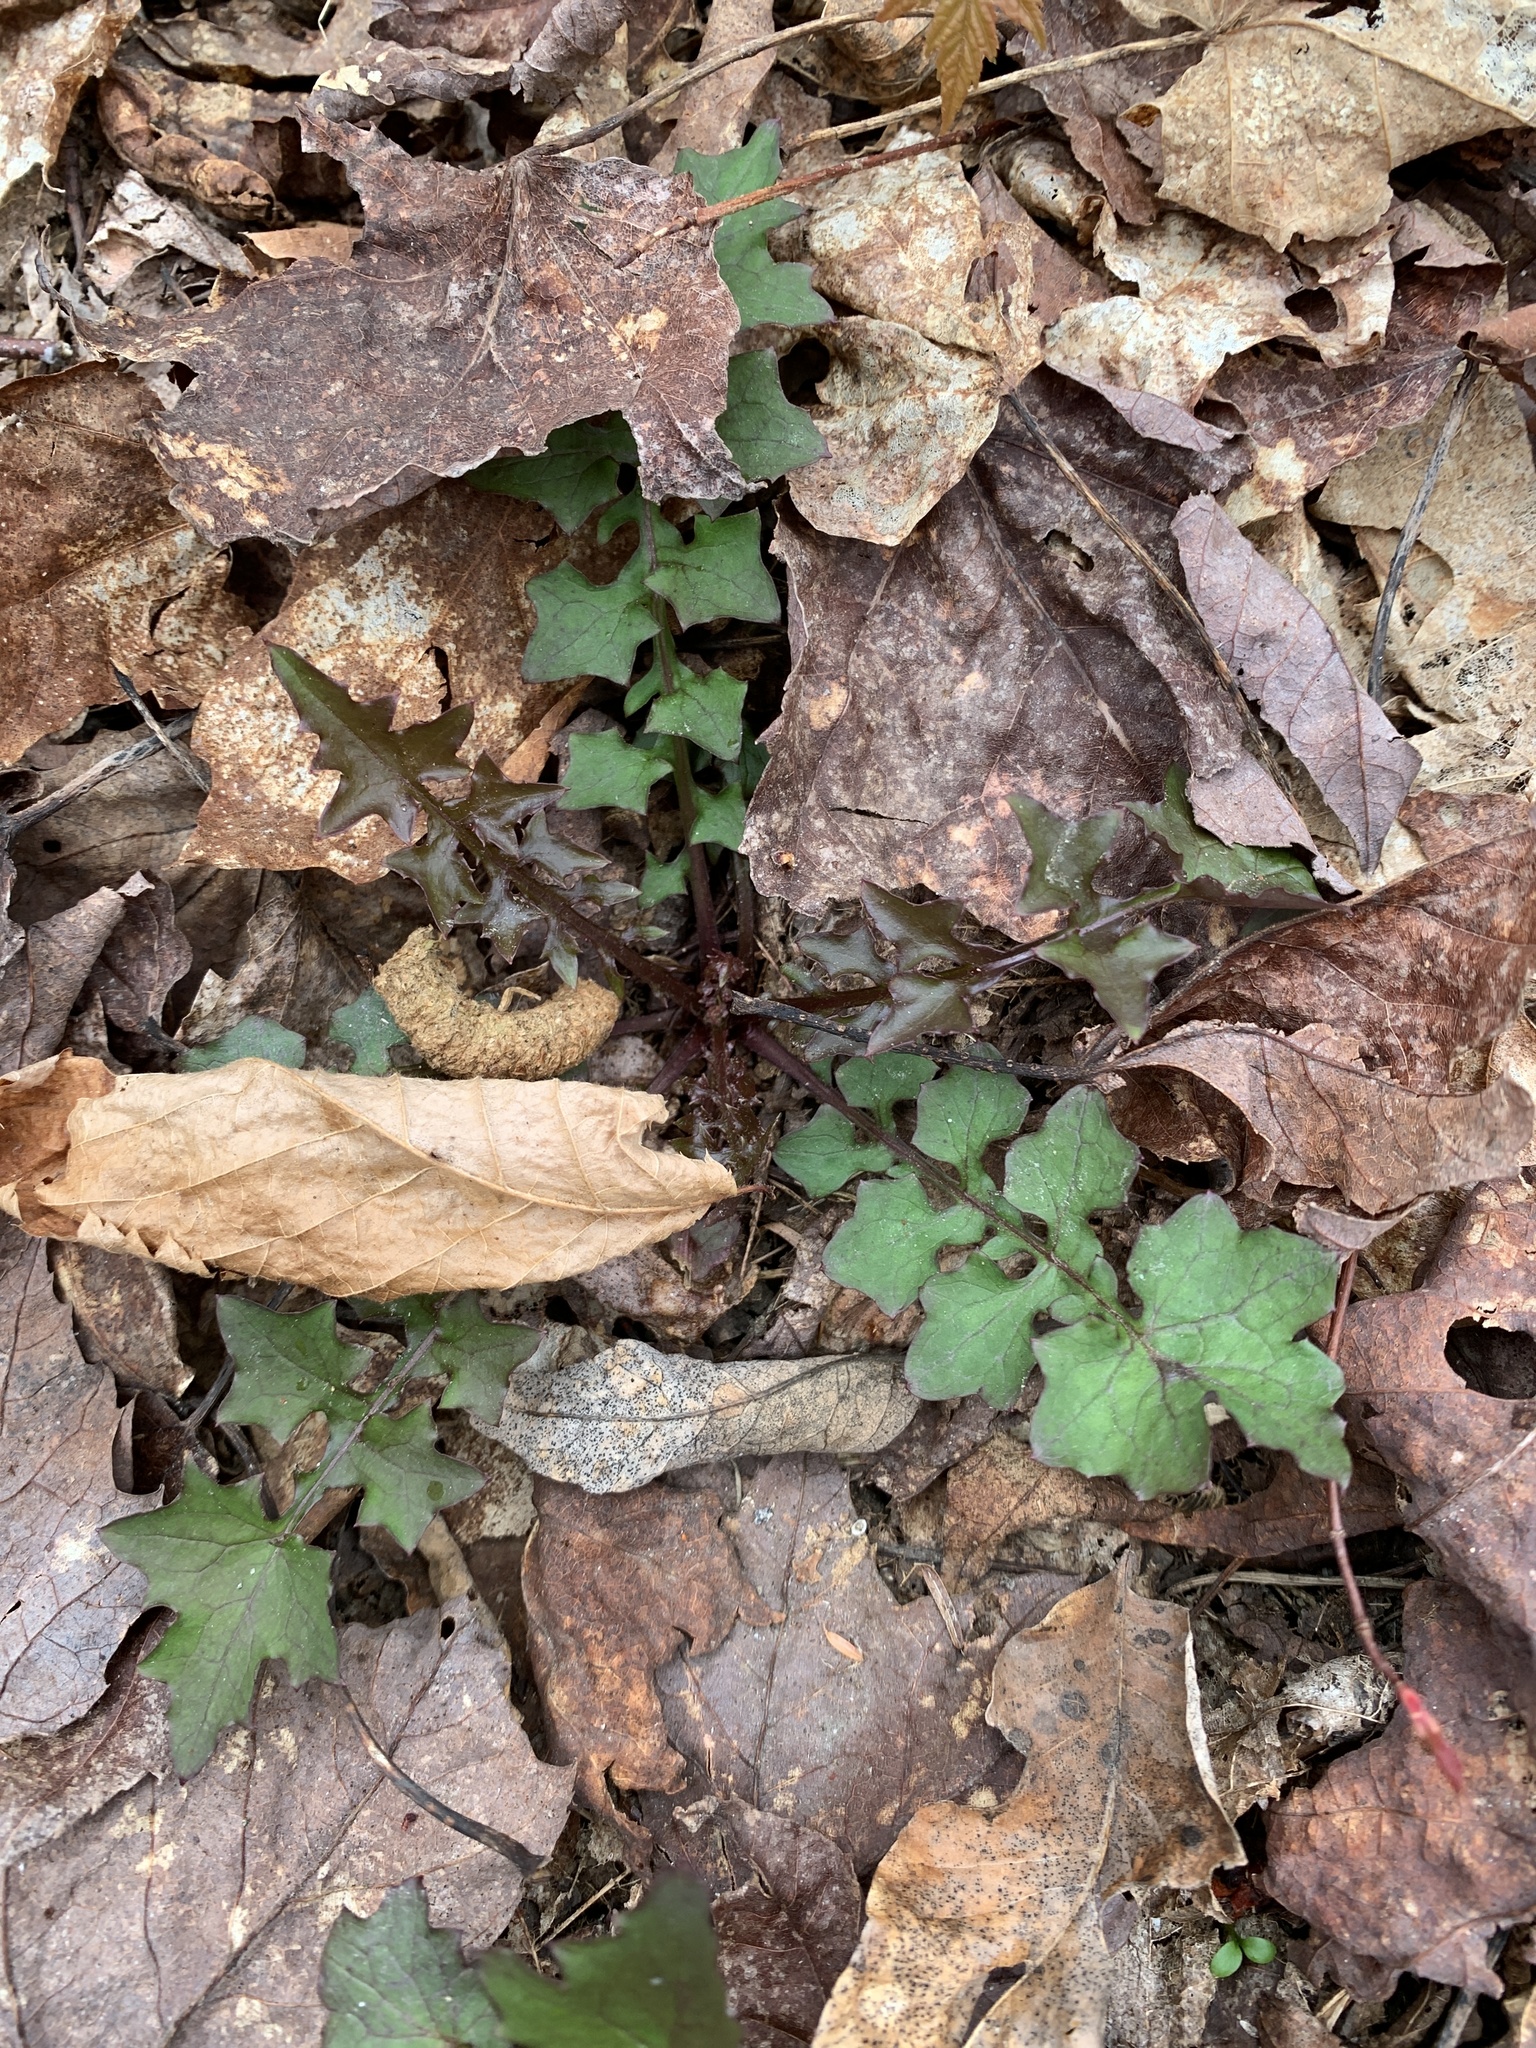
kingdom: Plantae
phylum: Tracheophyta
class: Magnoliopsida
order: Asterales
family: Asteraceae
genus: Mycelis
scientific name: Mycelis muralis
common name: Wall lettuce
